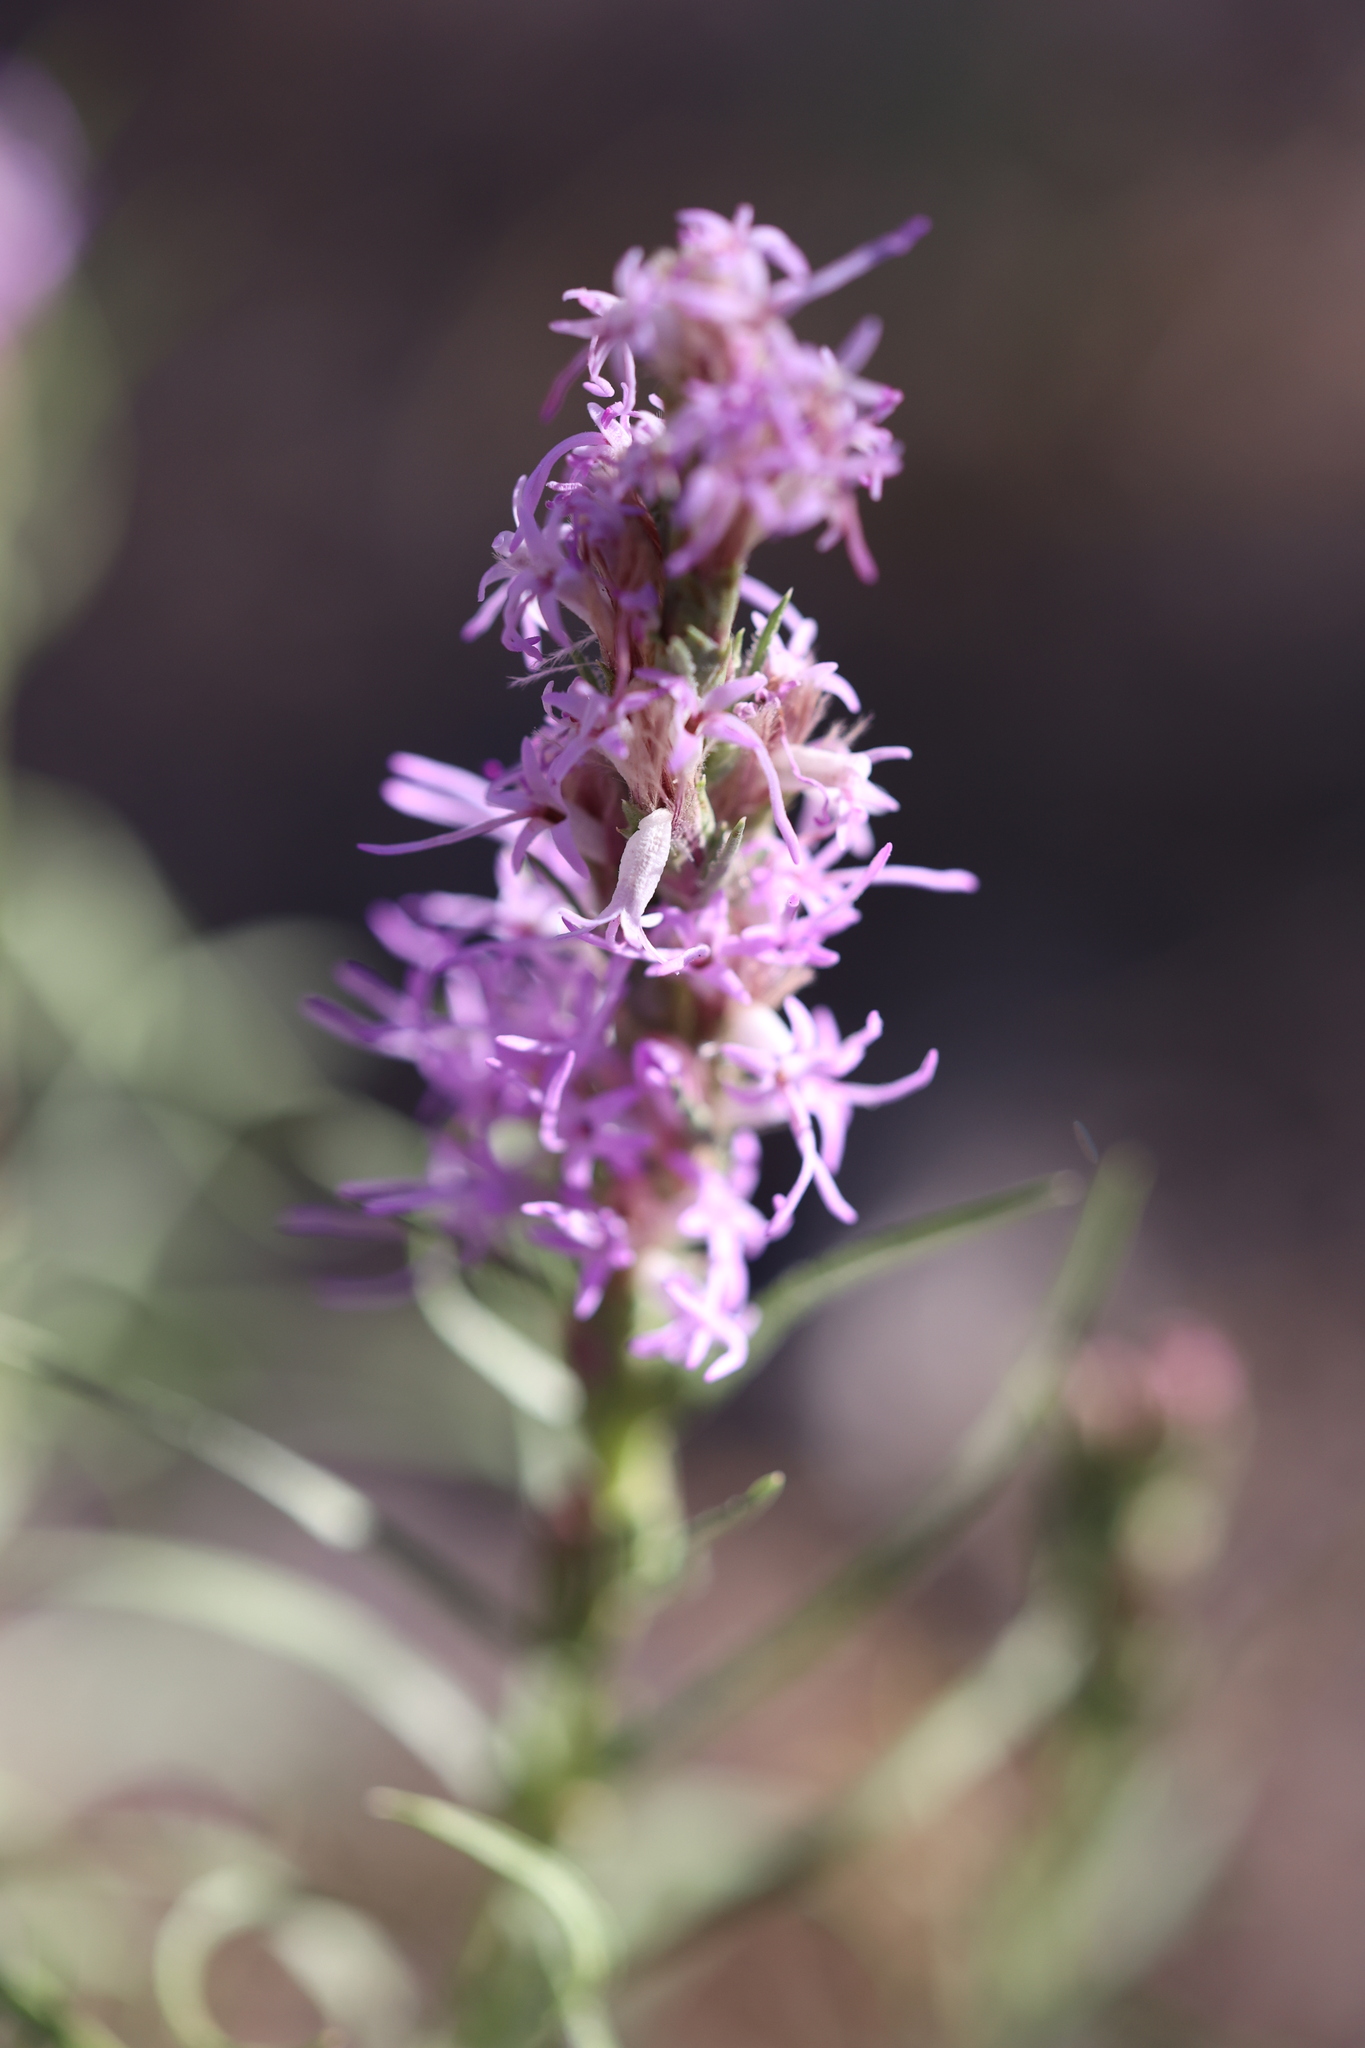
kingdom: Plantae
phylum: Tracheophyta
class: Magnoliopsida
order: Asterales
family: Asteraceae
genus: Liatris
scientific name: Liatris punctata
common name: Dotted gayfeather
